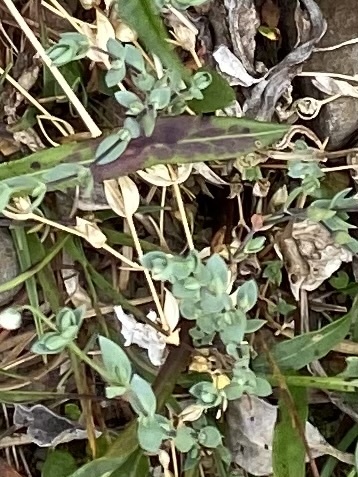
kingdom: Plantae
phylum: Tracheophyta
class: Magnoliopsida
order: Caryophyllales
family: Caryophyllaceae
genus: Stellaria
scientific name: Stellaria longipes
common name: Goldie's starwort
